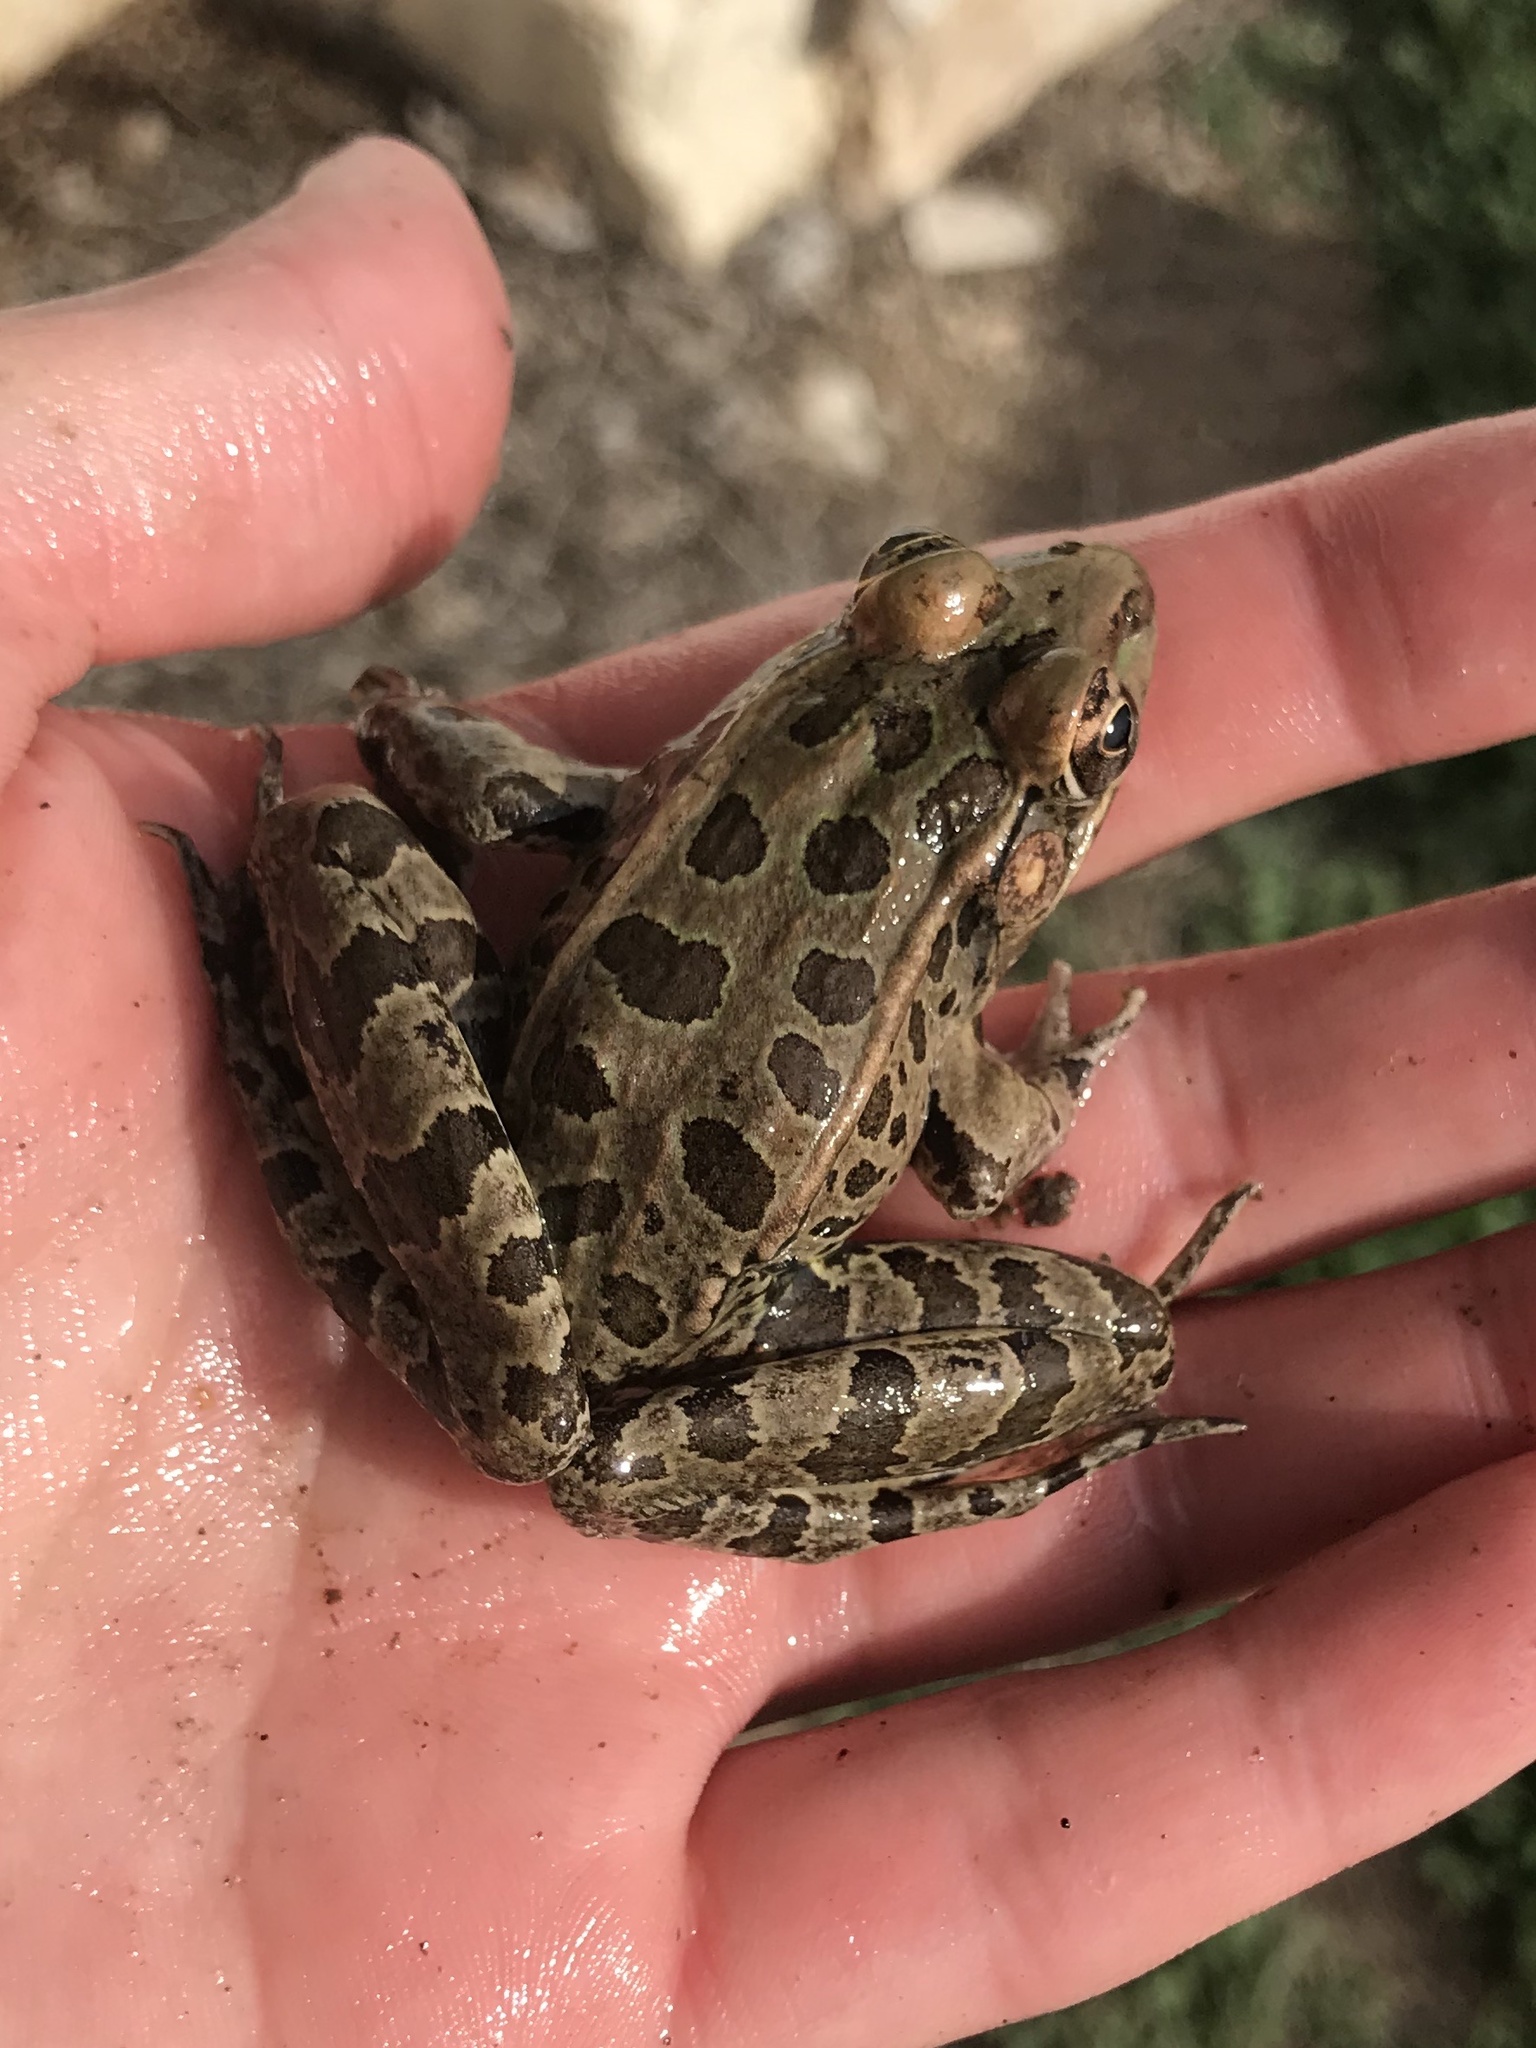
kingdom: Animalia
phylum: Chordata
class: Amphibia
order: Anura
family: Ranidae
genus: Lithobates
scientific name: Lithobates berlandieri
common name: Rio grande leopard frog
